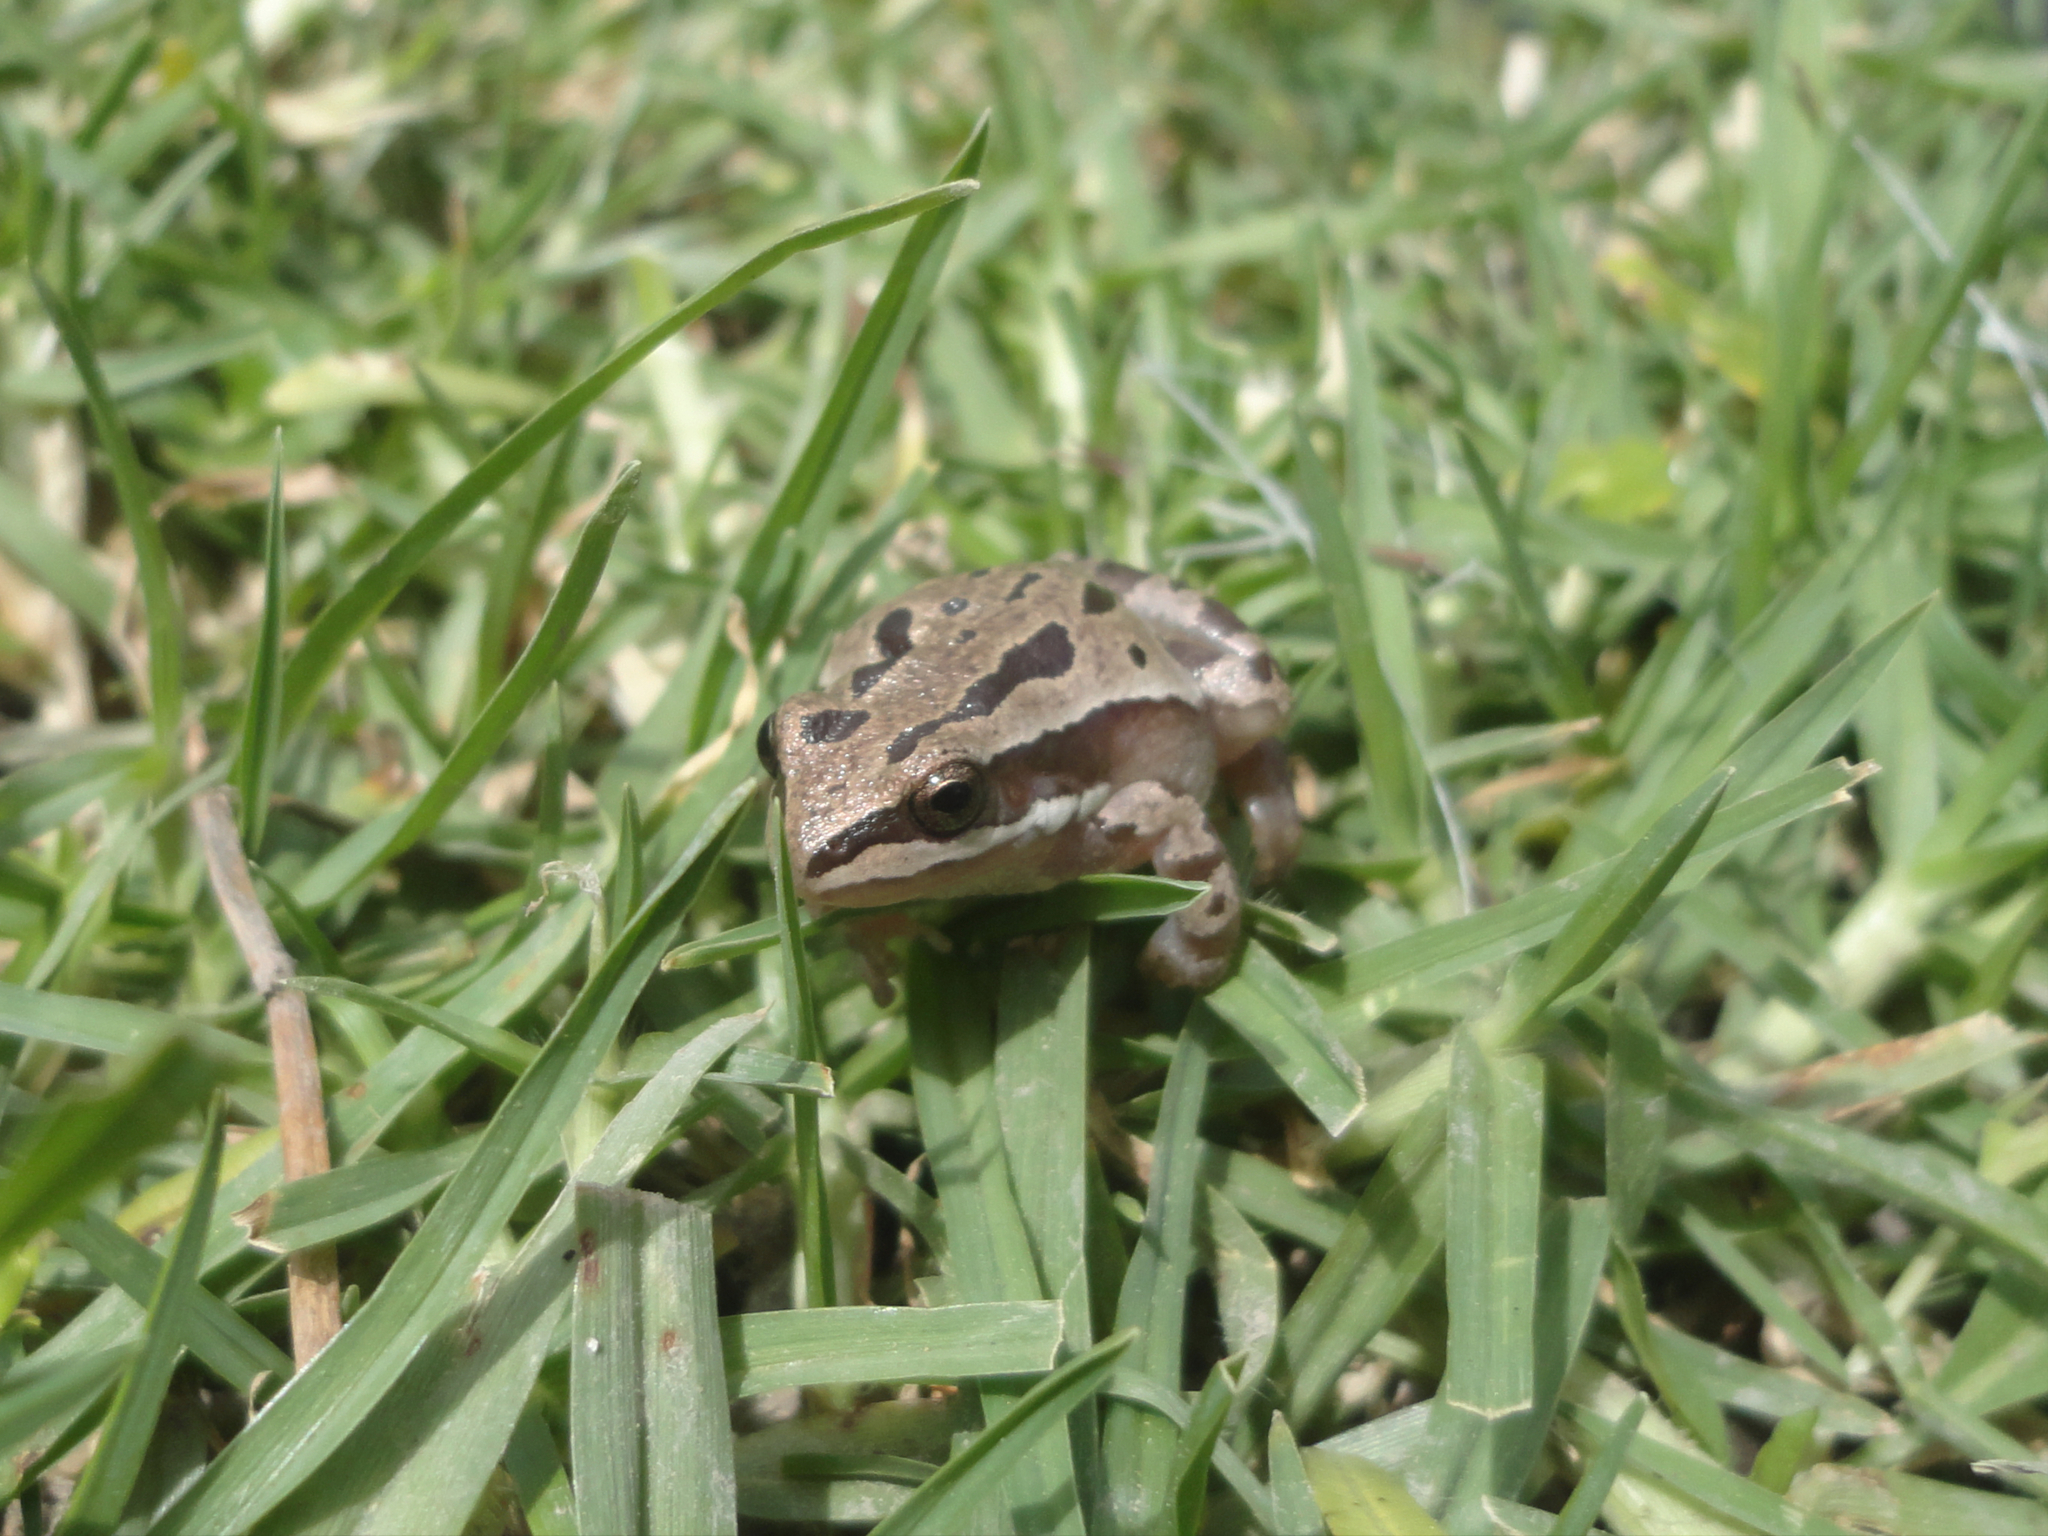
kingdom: Animalia
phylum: Chordata
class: Amphibia
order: Anura
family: Hylidae
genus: Dryophytes
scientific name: Dryophytes eximius
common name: Mountain treefrog
